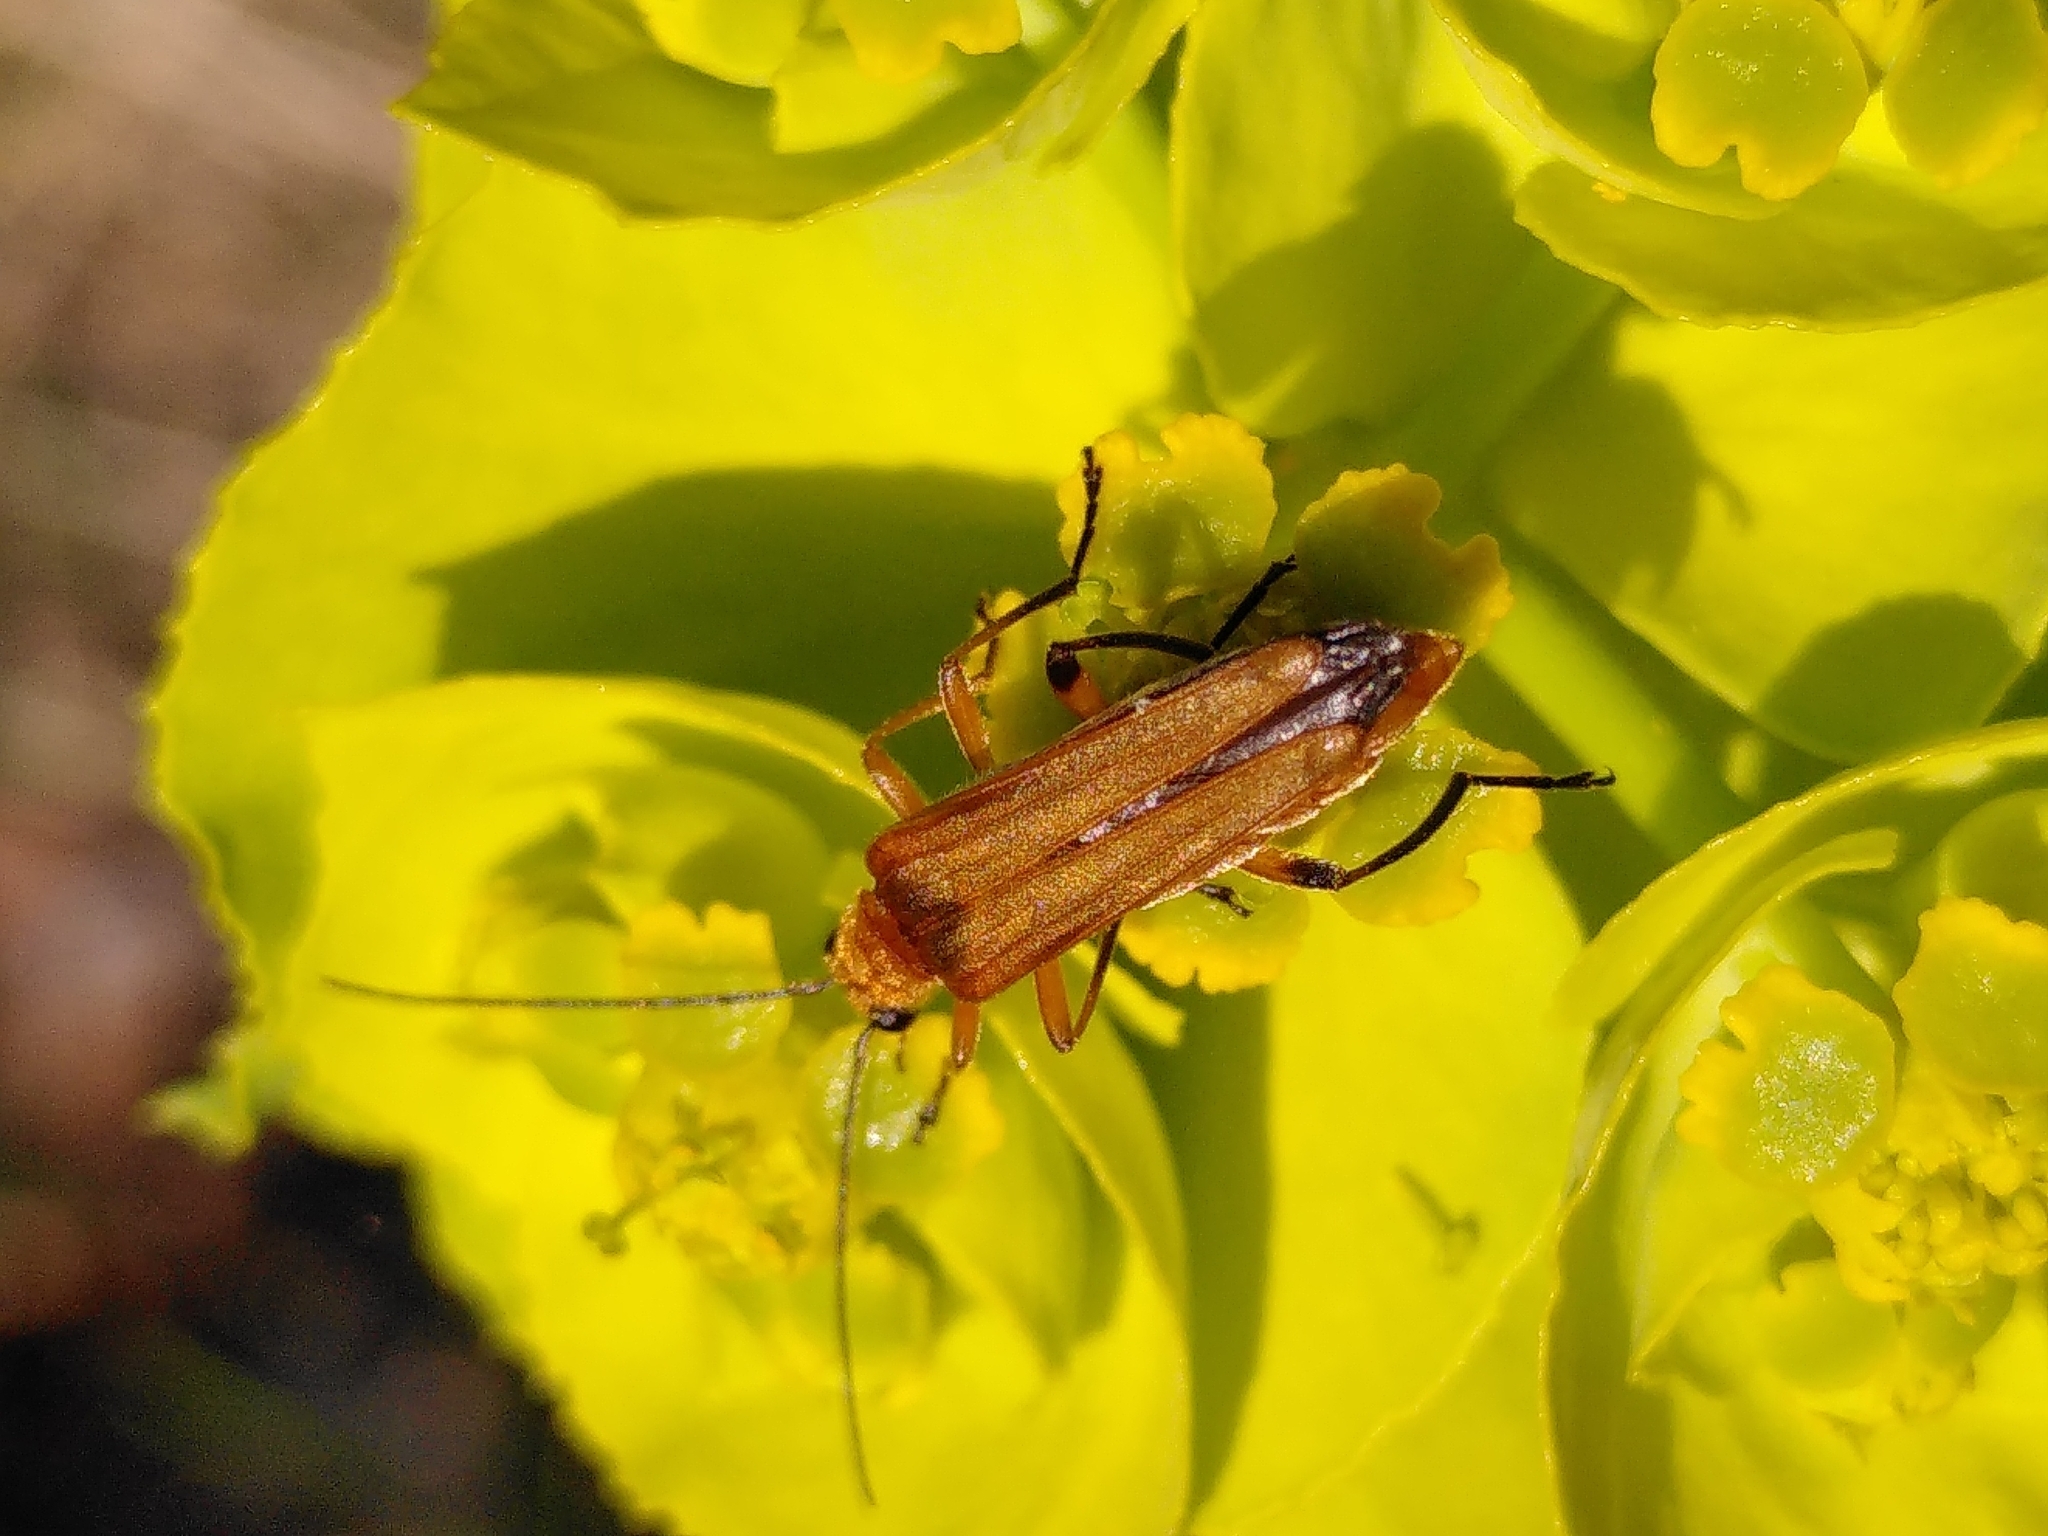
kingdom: Animalia
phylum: Arthropoda
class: Insecta
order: Coleoptera
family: Oedemeridae
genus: Oedemera
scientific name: Oedemera podagrariae
